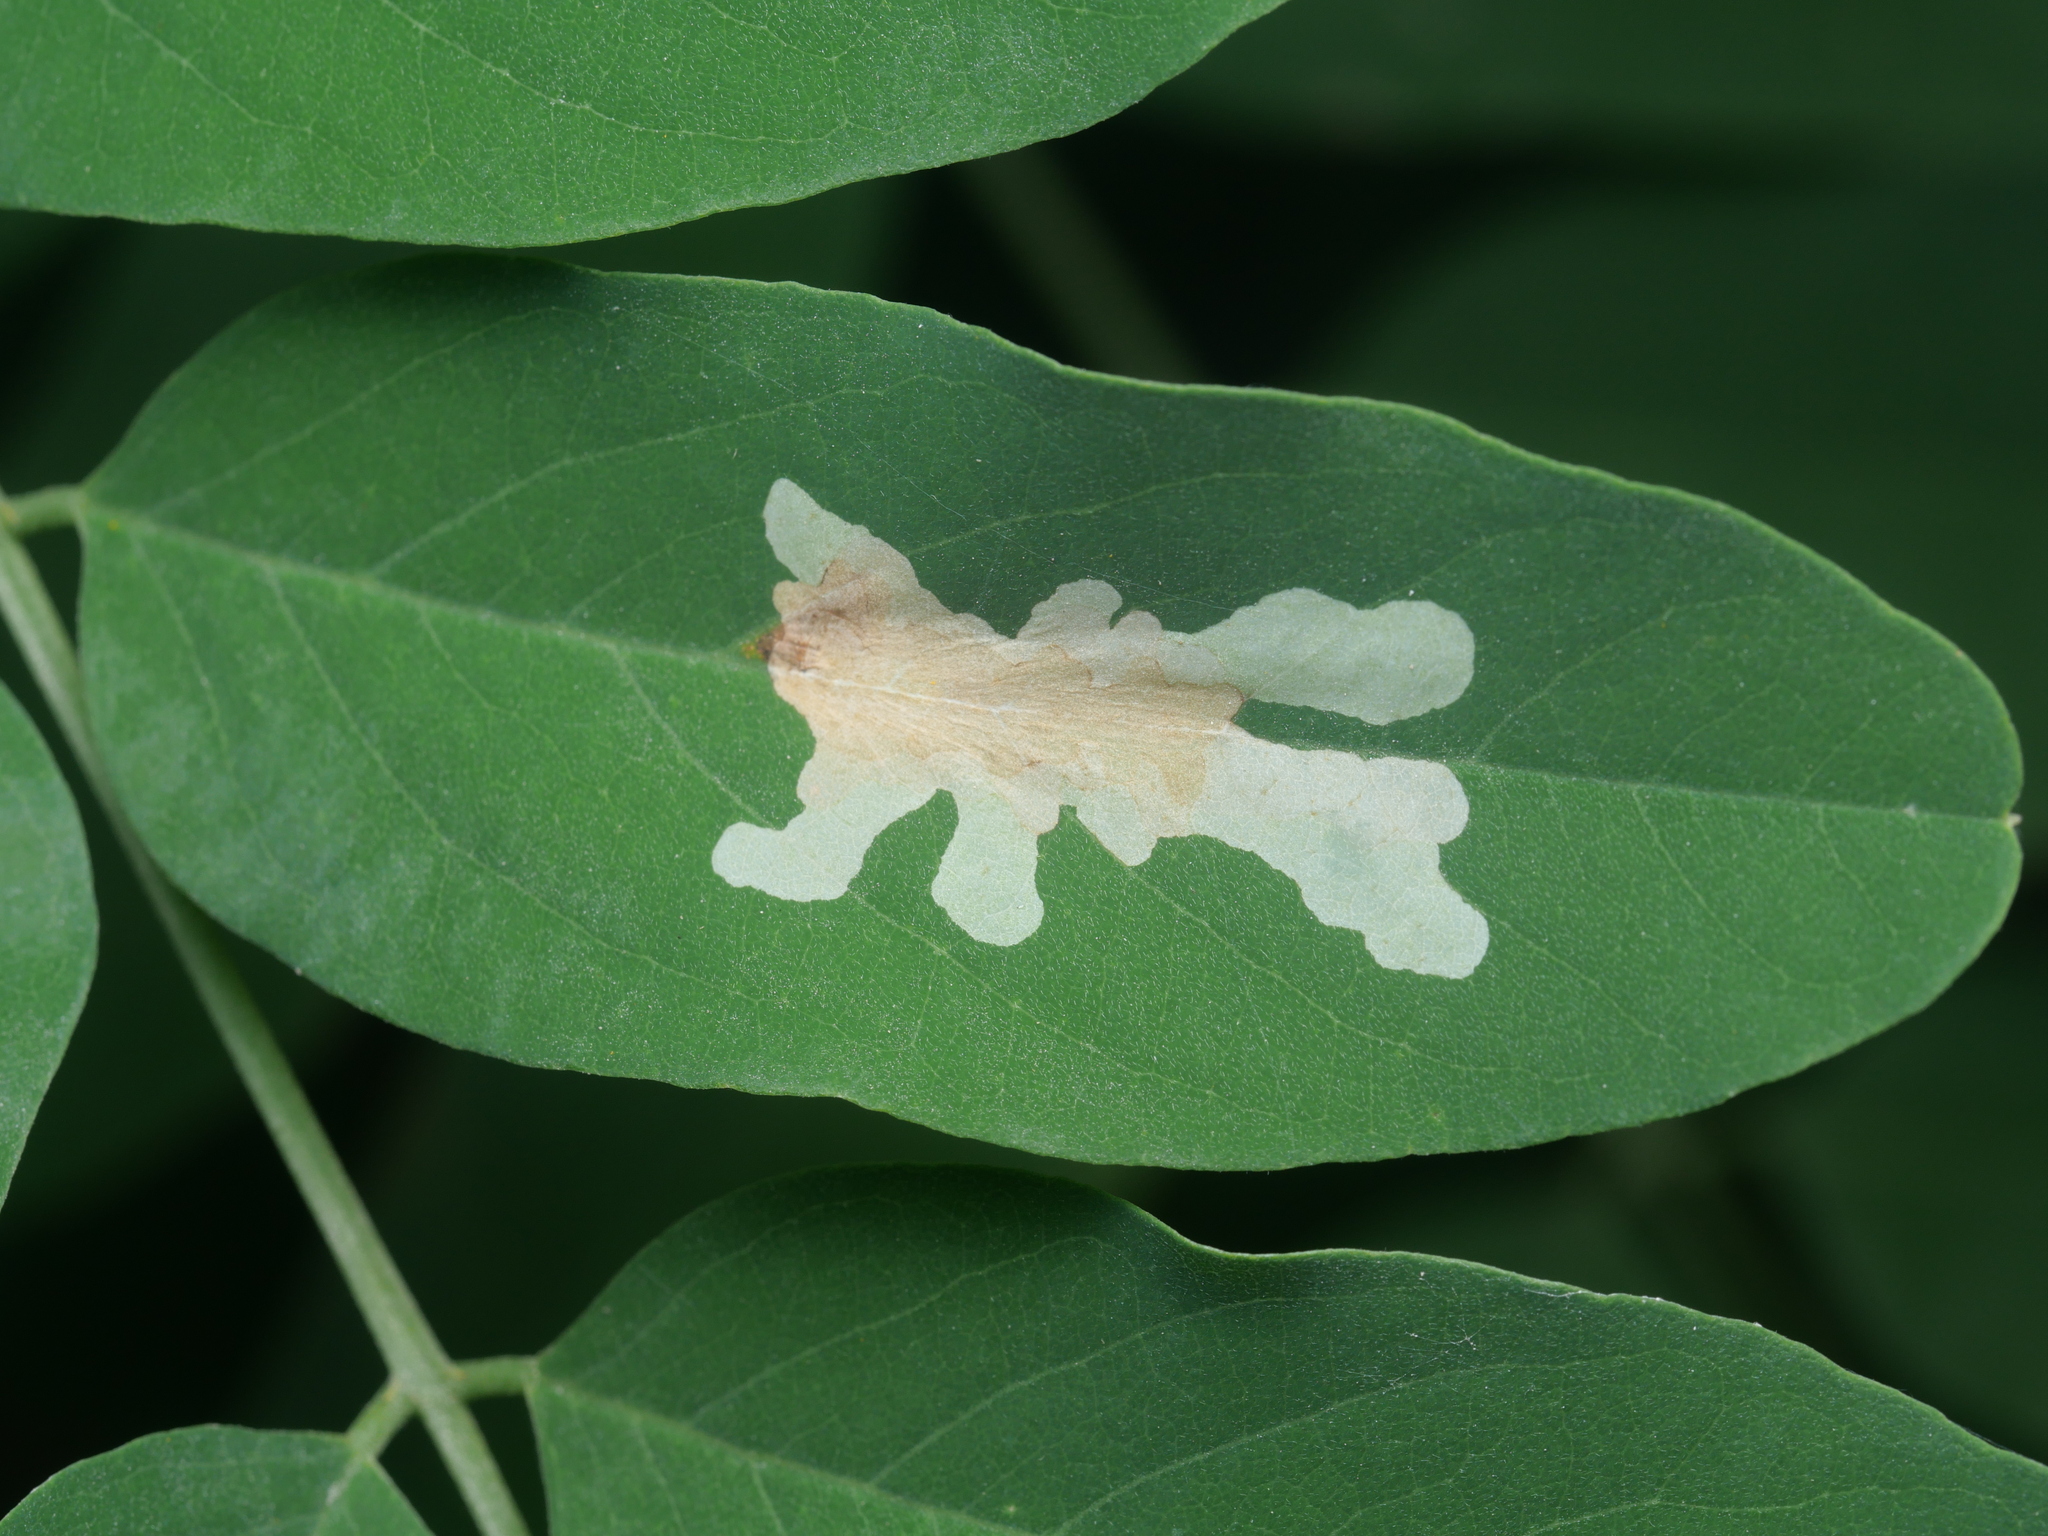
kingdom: Animalia
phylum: Arthropoda
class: Insecta
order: Lepidoptera
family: Gracillariidae
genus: Parectopa
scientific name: Parectopa robiniella
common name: Locust digitate leafminer
